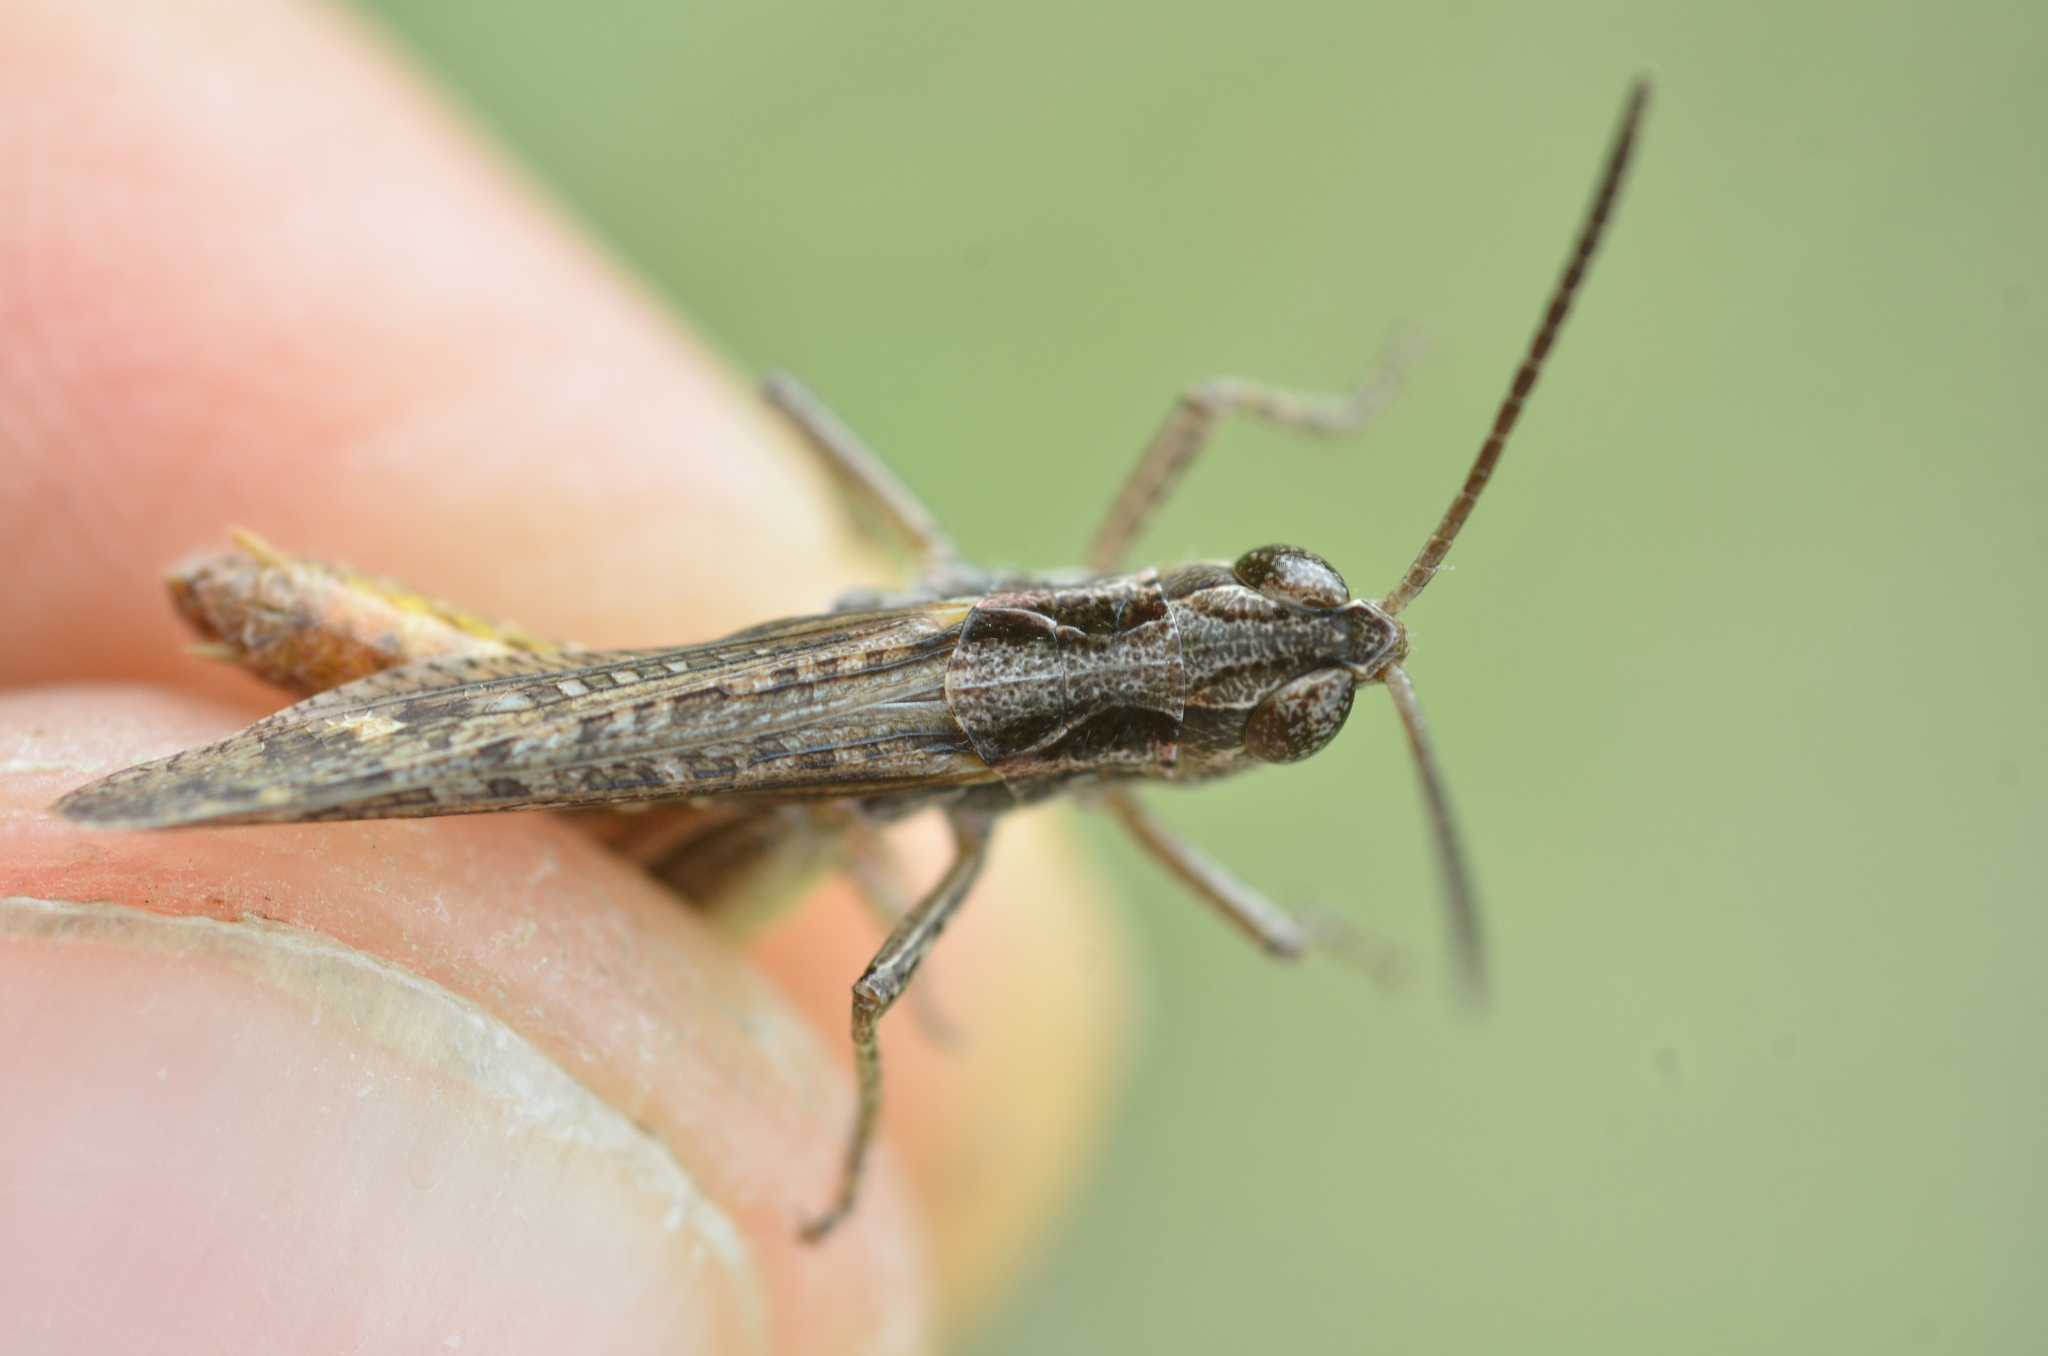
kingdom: Animalia
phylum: Arthropoda
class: Insecta
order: Orthoptera
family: Acrididae
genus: Chorthippus
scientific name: Chorthippus vagans
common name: Heath grasshopper
